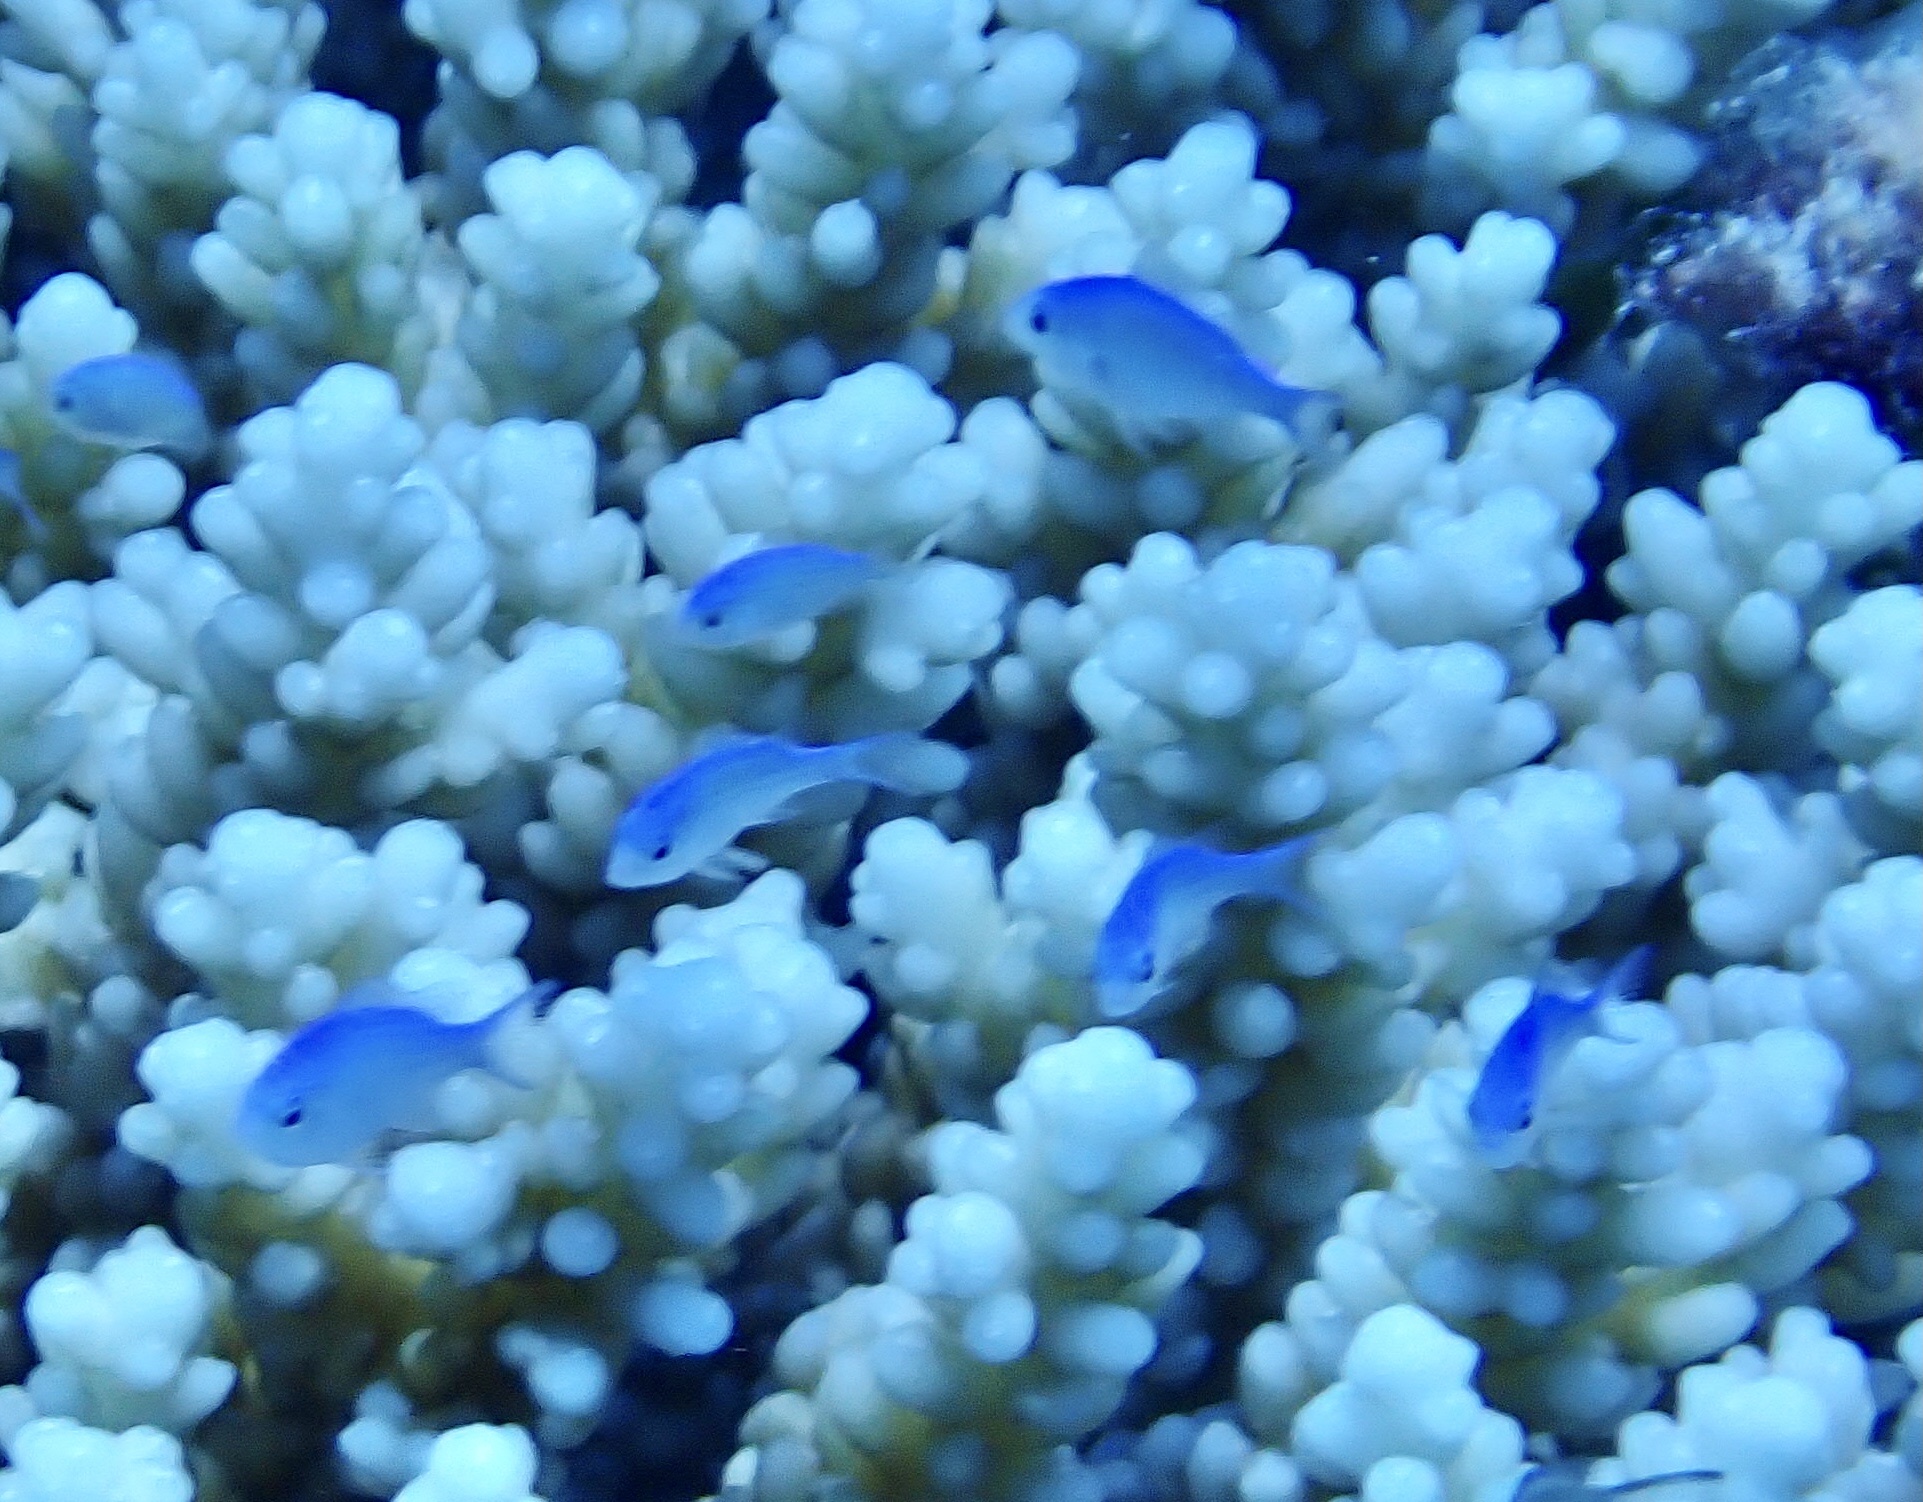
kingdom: Animalia
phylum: Chordata
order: Perciformes
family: Pomacentridae
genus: Chromis
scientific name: Chromis viridis
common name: Blue-green chromis
